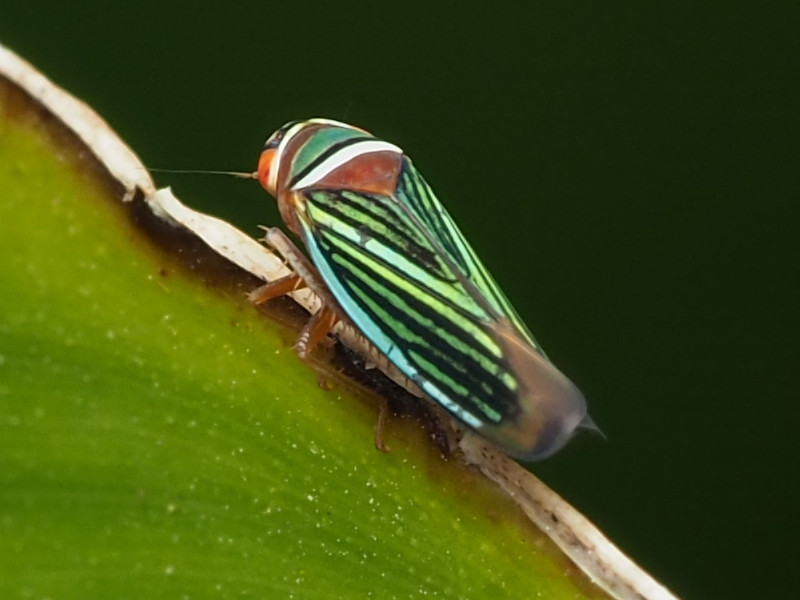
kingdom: Animalia
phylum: Arthropoda
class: Insecta
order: Hemiptera
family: Cicadellidae
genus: Tylozygus
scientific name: Tylozygus fuscolineellus
